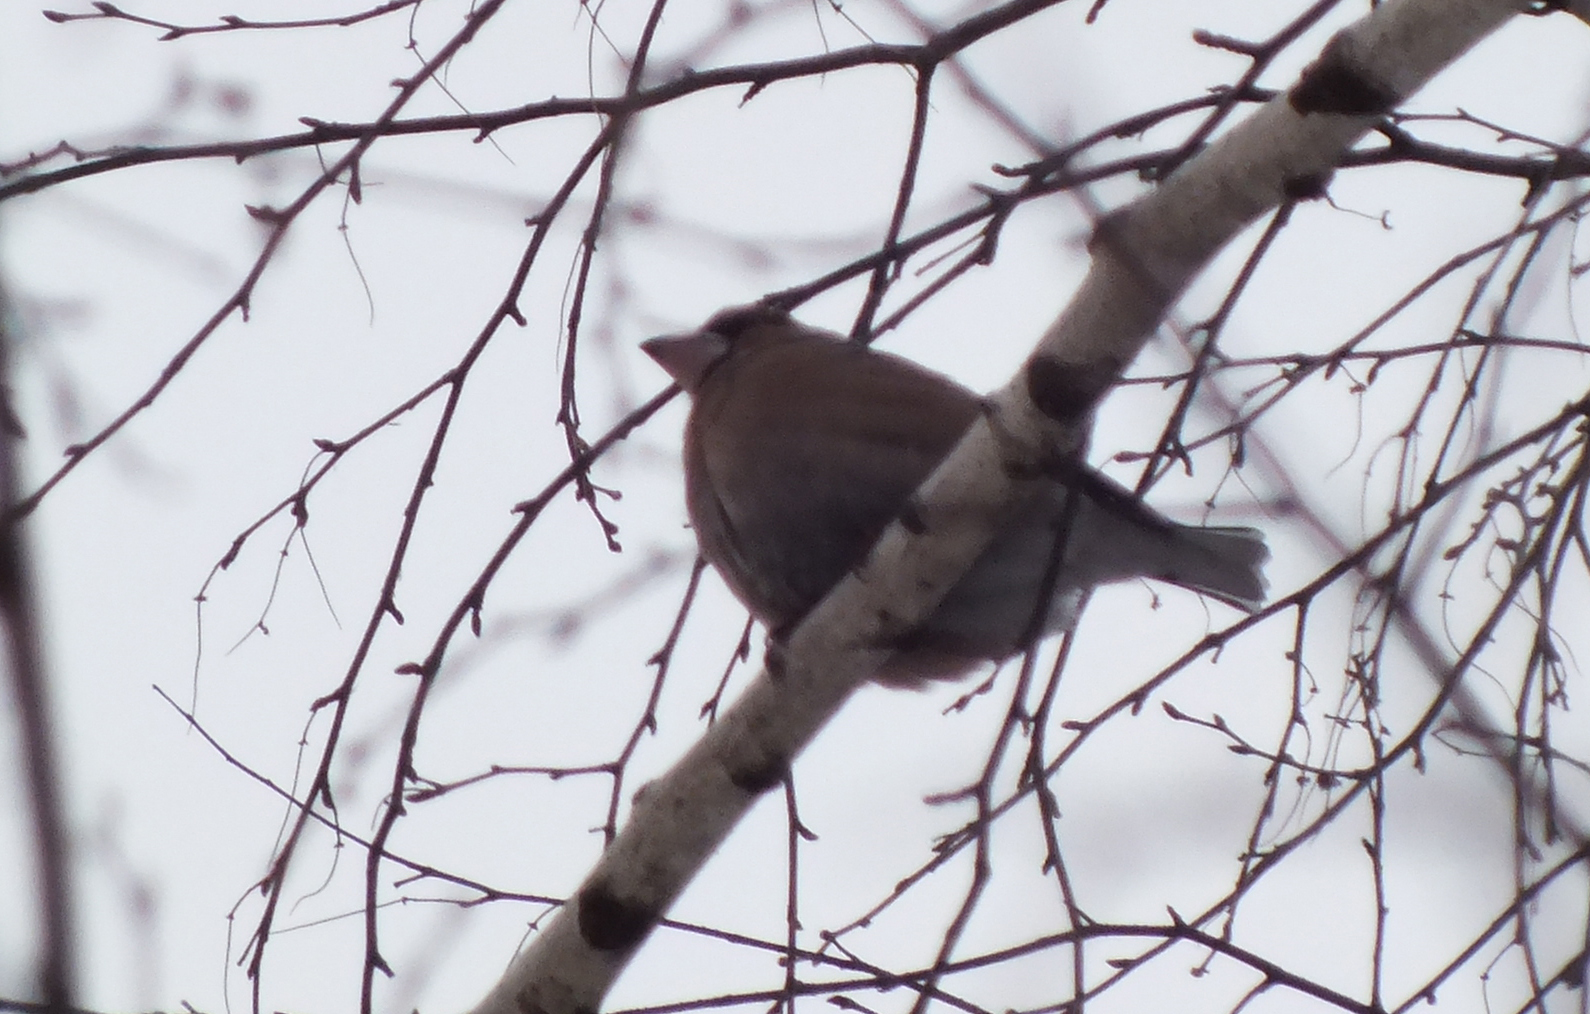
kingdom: Animalia
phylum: Chordata
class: Aves
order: Passeriformes
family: Fringillidae
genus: Coccothraustes
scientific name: Coccothraustes coccothraustes
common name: Hawfinch
